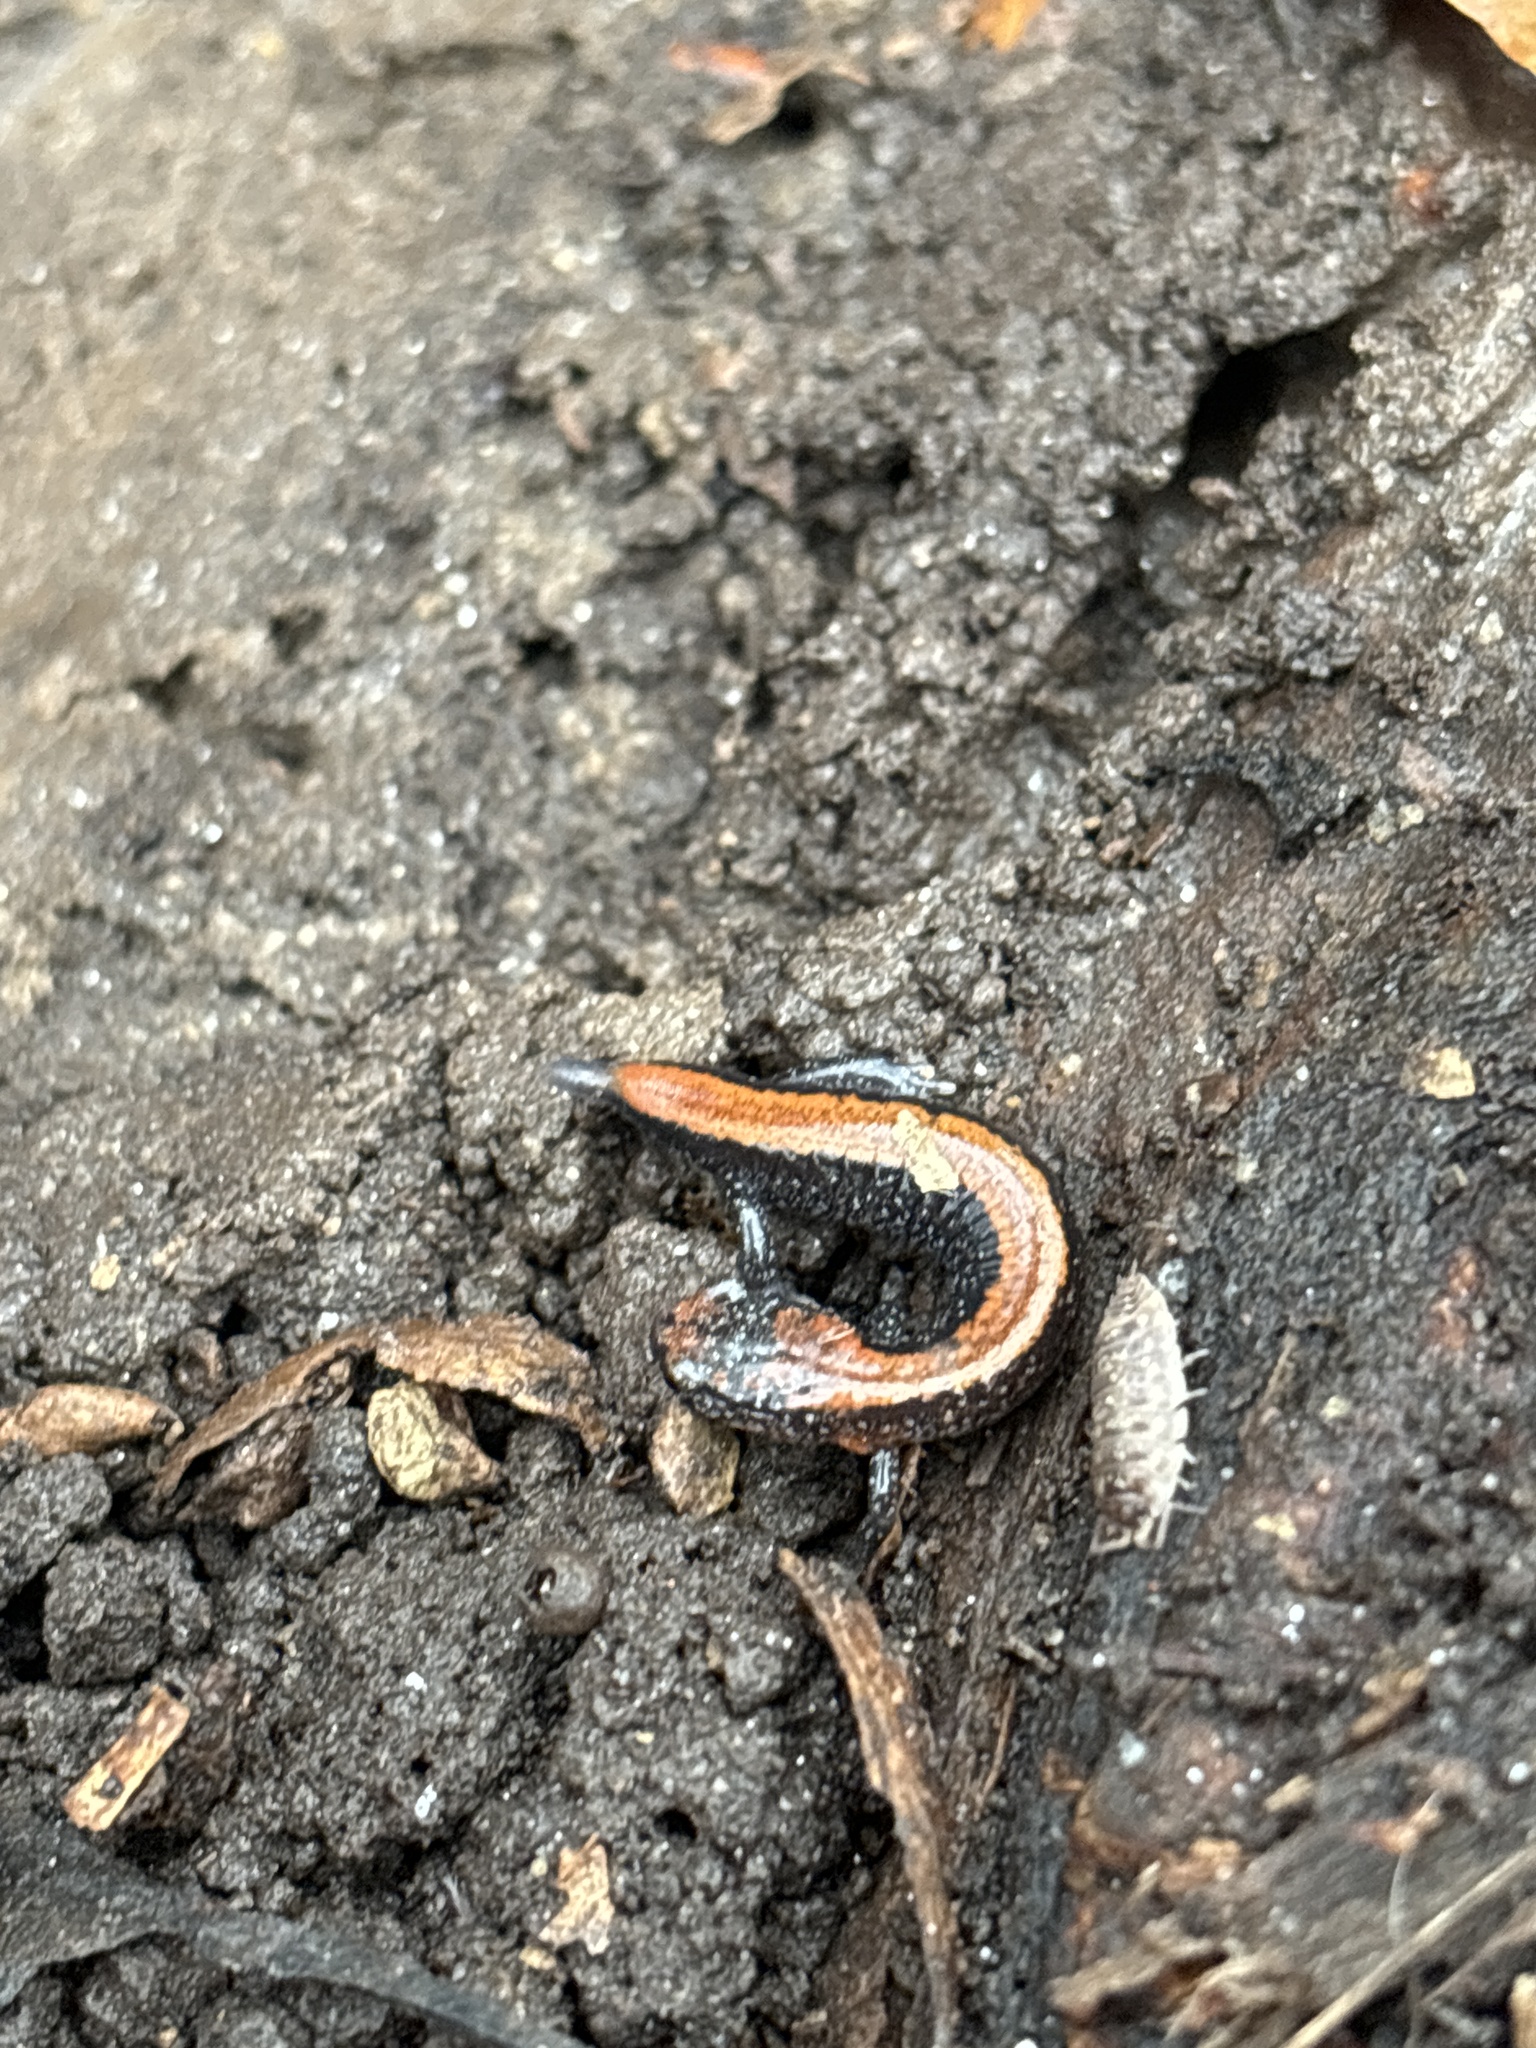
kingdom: Animalia
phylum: Chordata
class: Amphibia
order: Caudata
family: Plethodontidae
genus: Plethodon
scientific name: Plethodon cinereus
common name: Redback salamander
